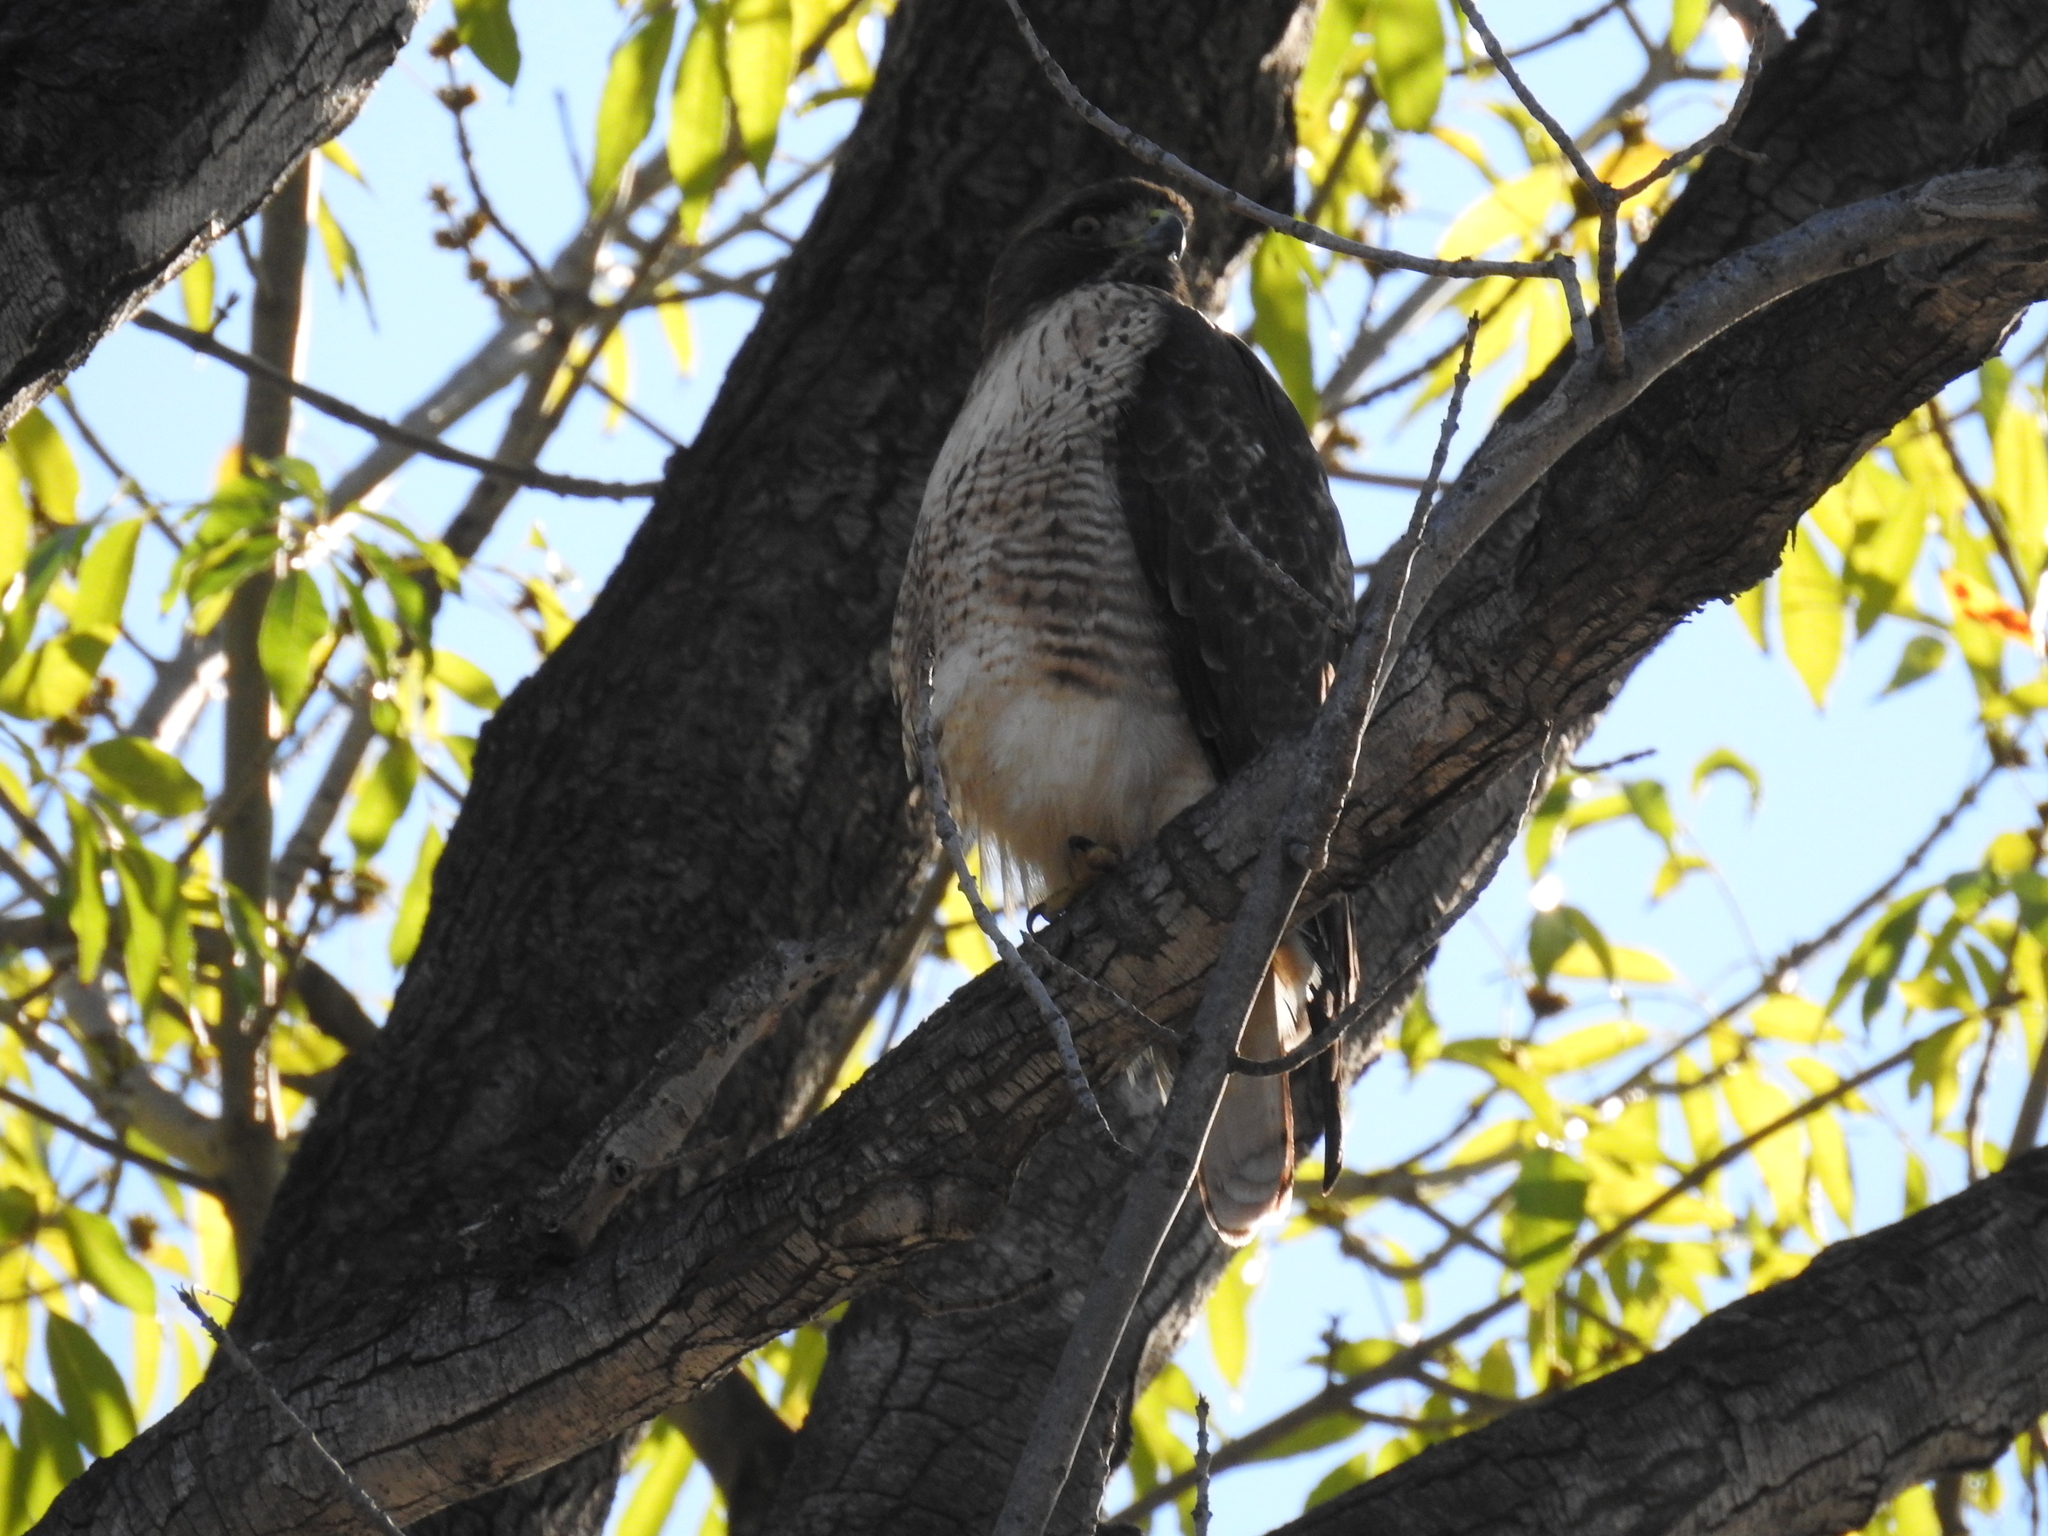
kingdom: Animalia
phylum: Chordata
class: Aves
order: Accipitriformes
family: Accipitridae
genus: Buteo
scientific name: Buteo jamaicensis
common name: Red-tailed hawk
